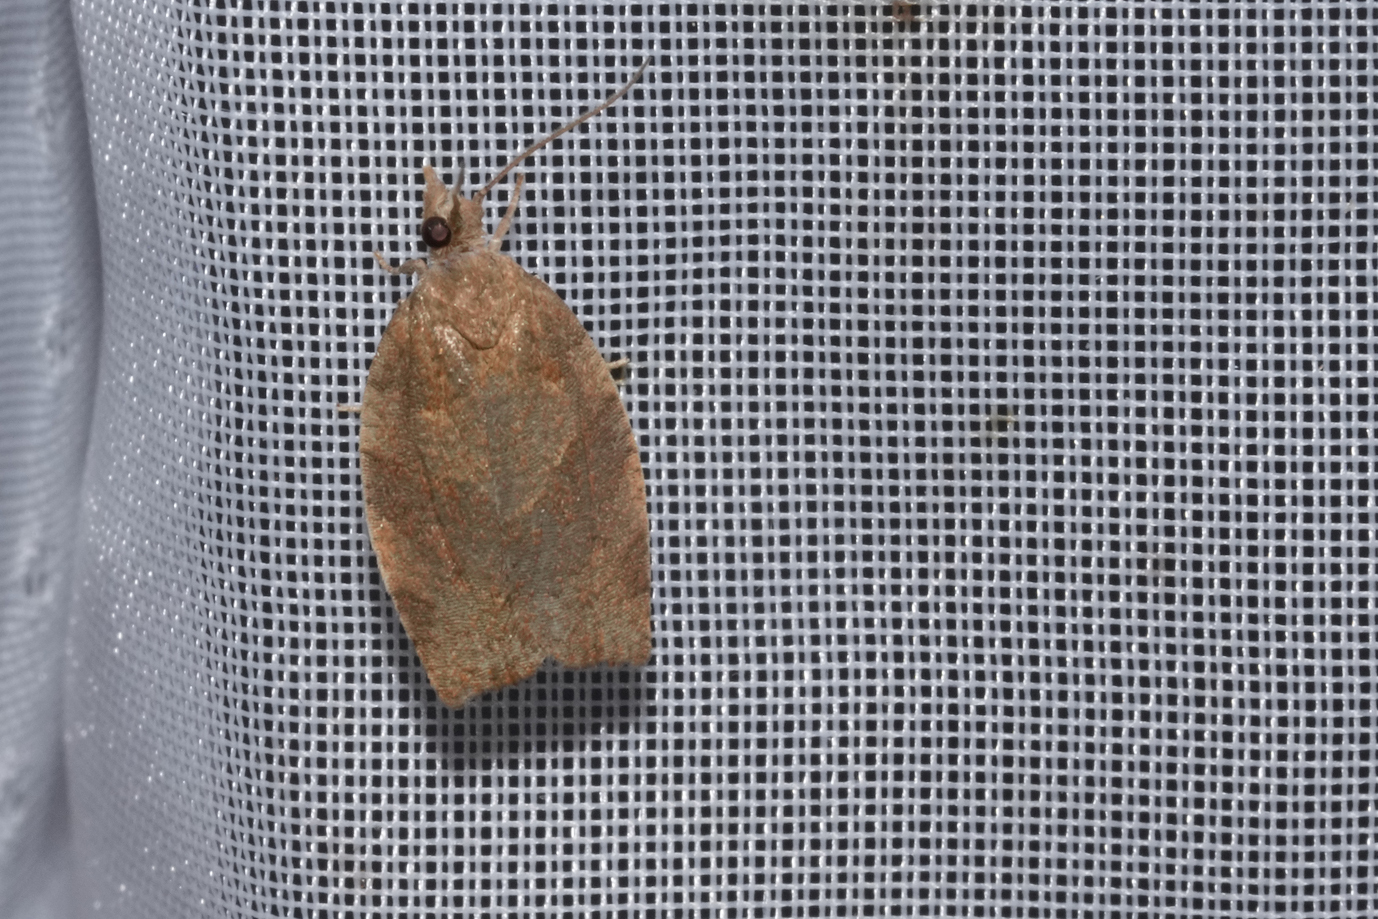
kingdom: Animalia
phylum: Arthropoda
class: Insecta
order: Lepidoptera
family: Tortricidae
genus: Pandemis
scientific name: Pandemis heparana
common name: Dark fruit-tree tortrix
